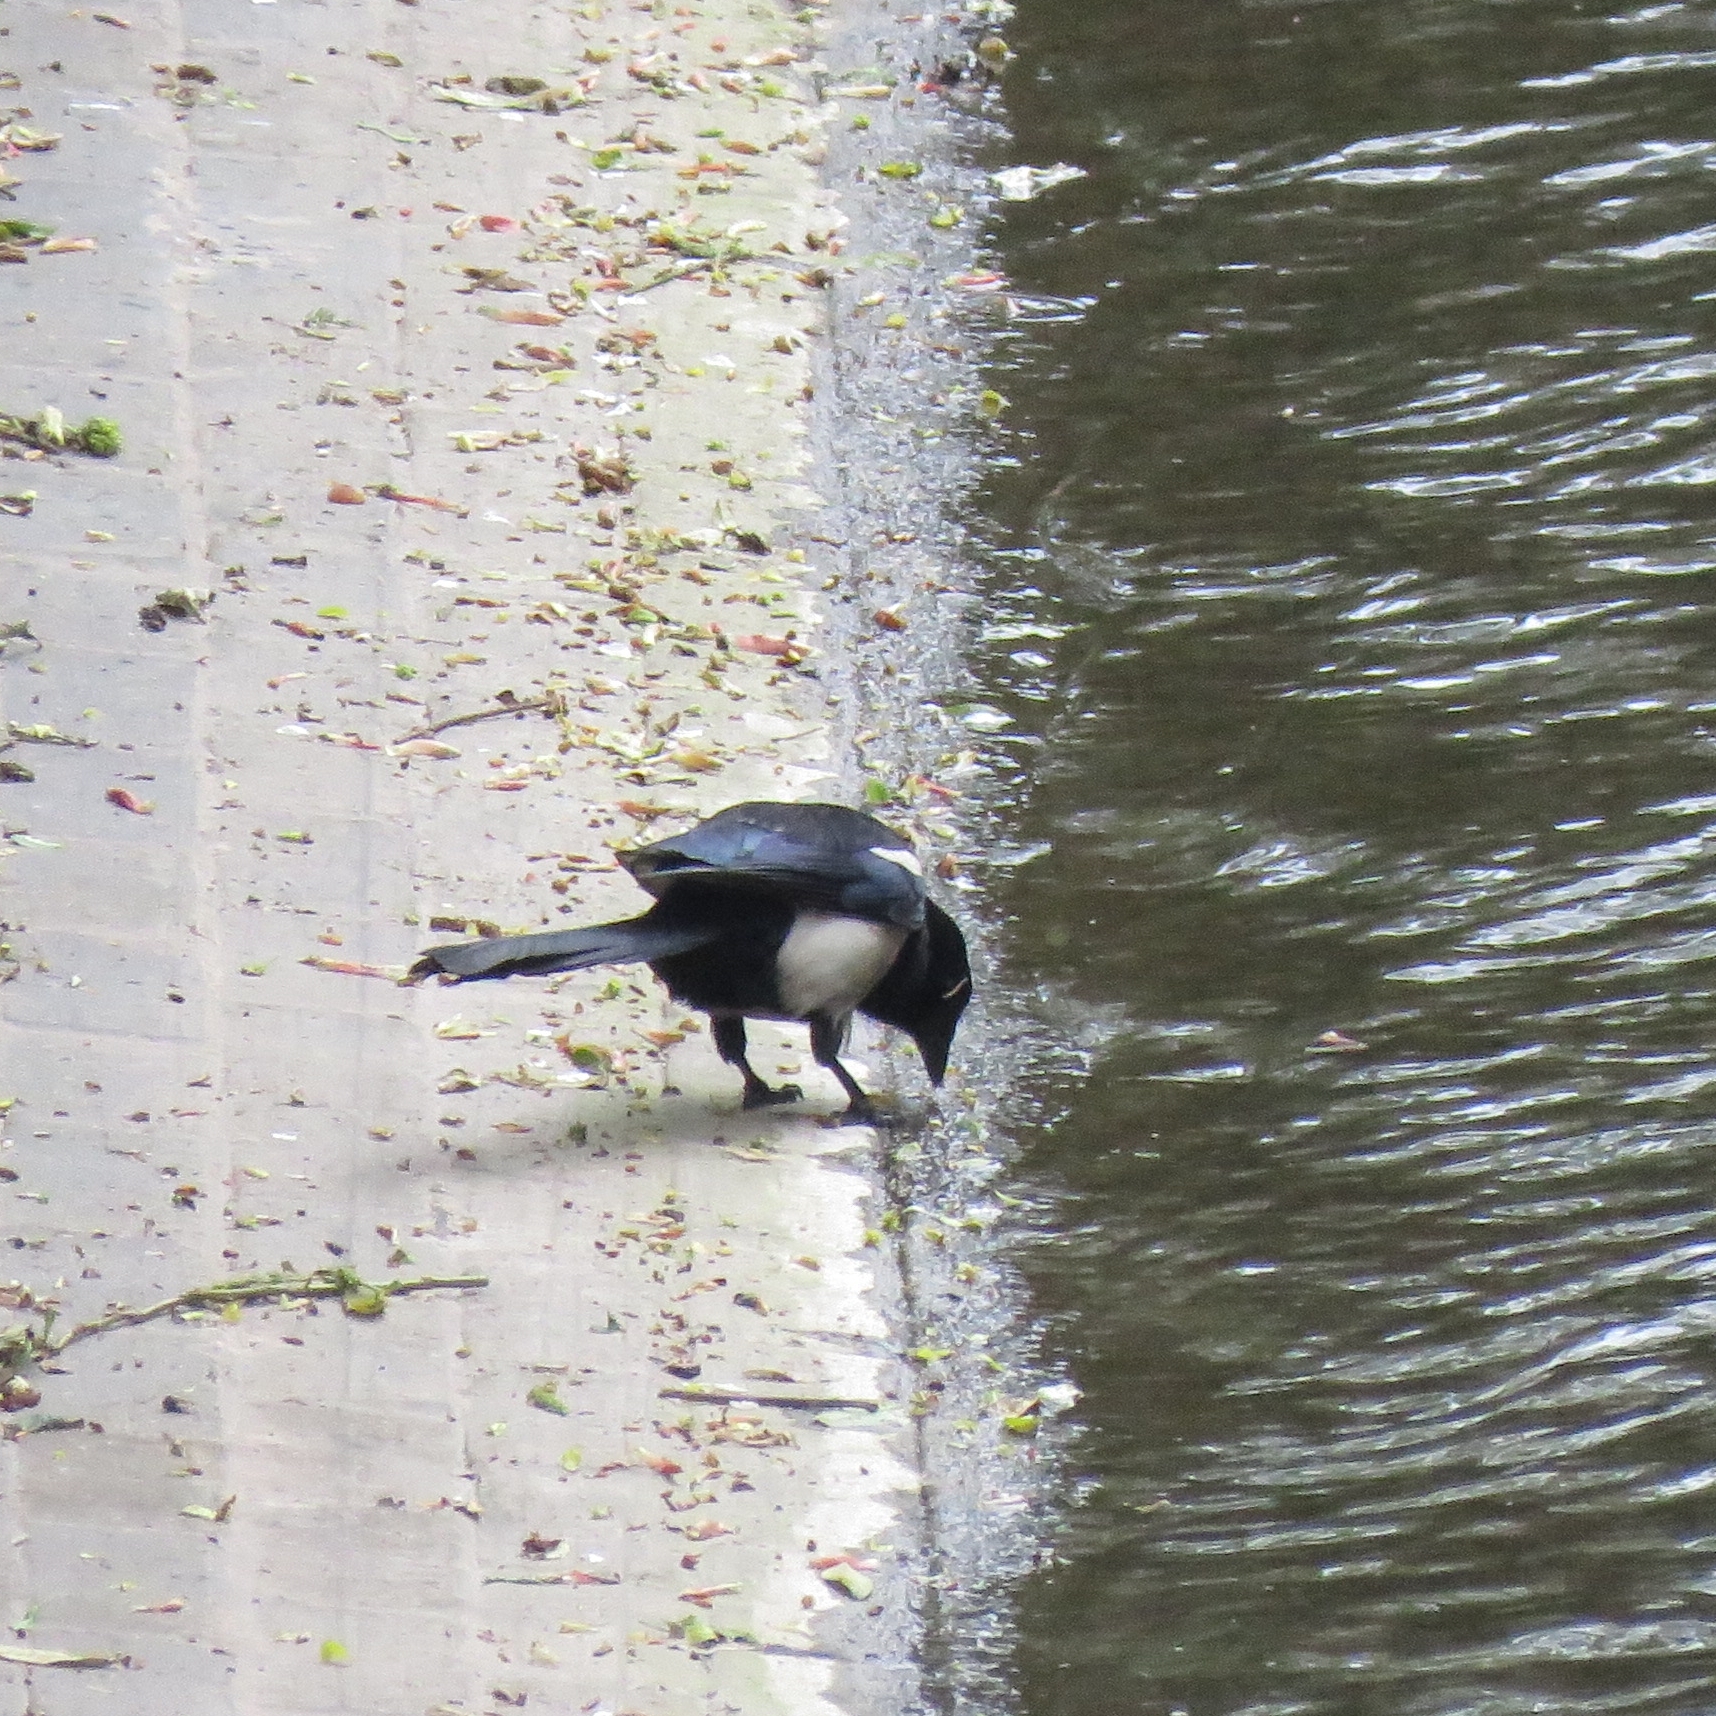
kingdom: Animalia
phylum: Chordata
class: Aves
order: Passeriformes
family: Corvidae
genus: Pica
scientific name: Pica pica
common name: Eurasian magpie
